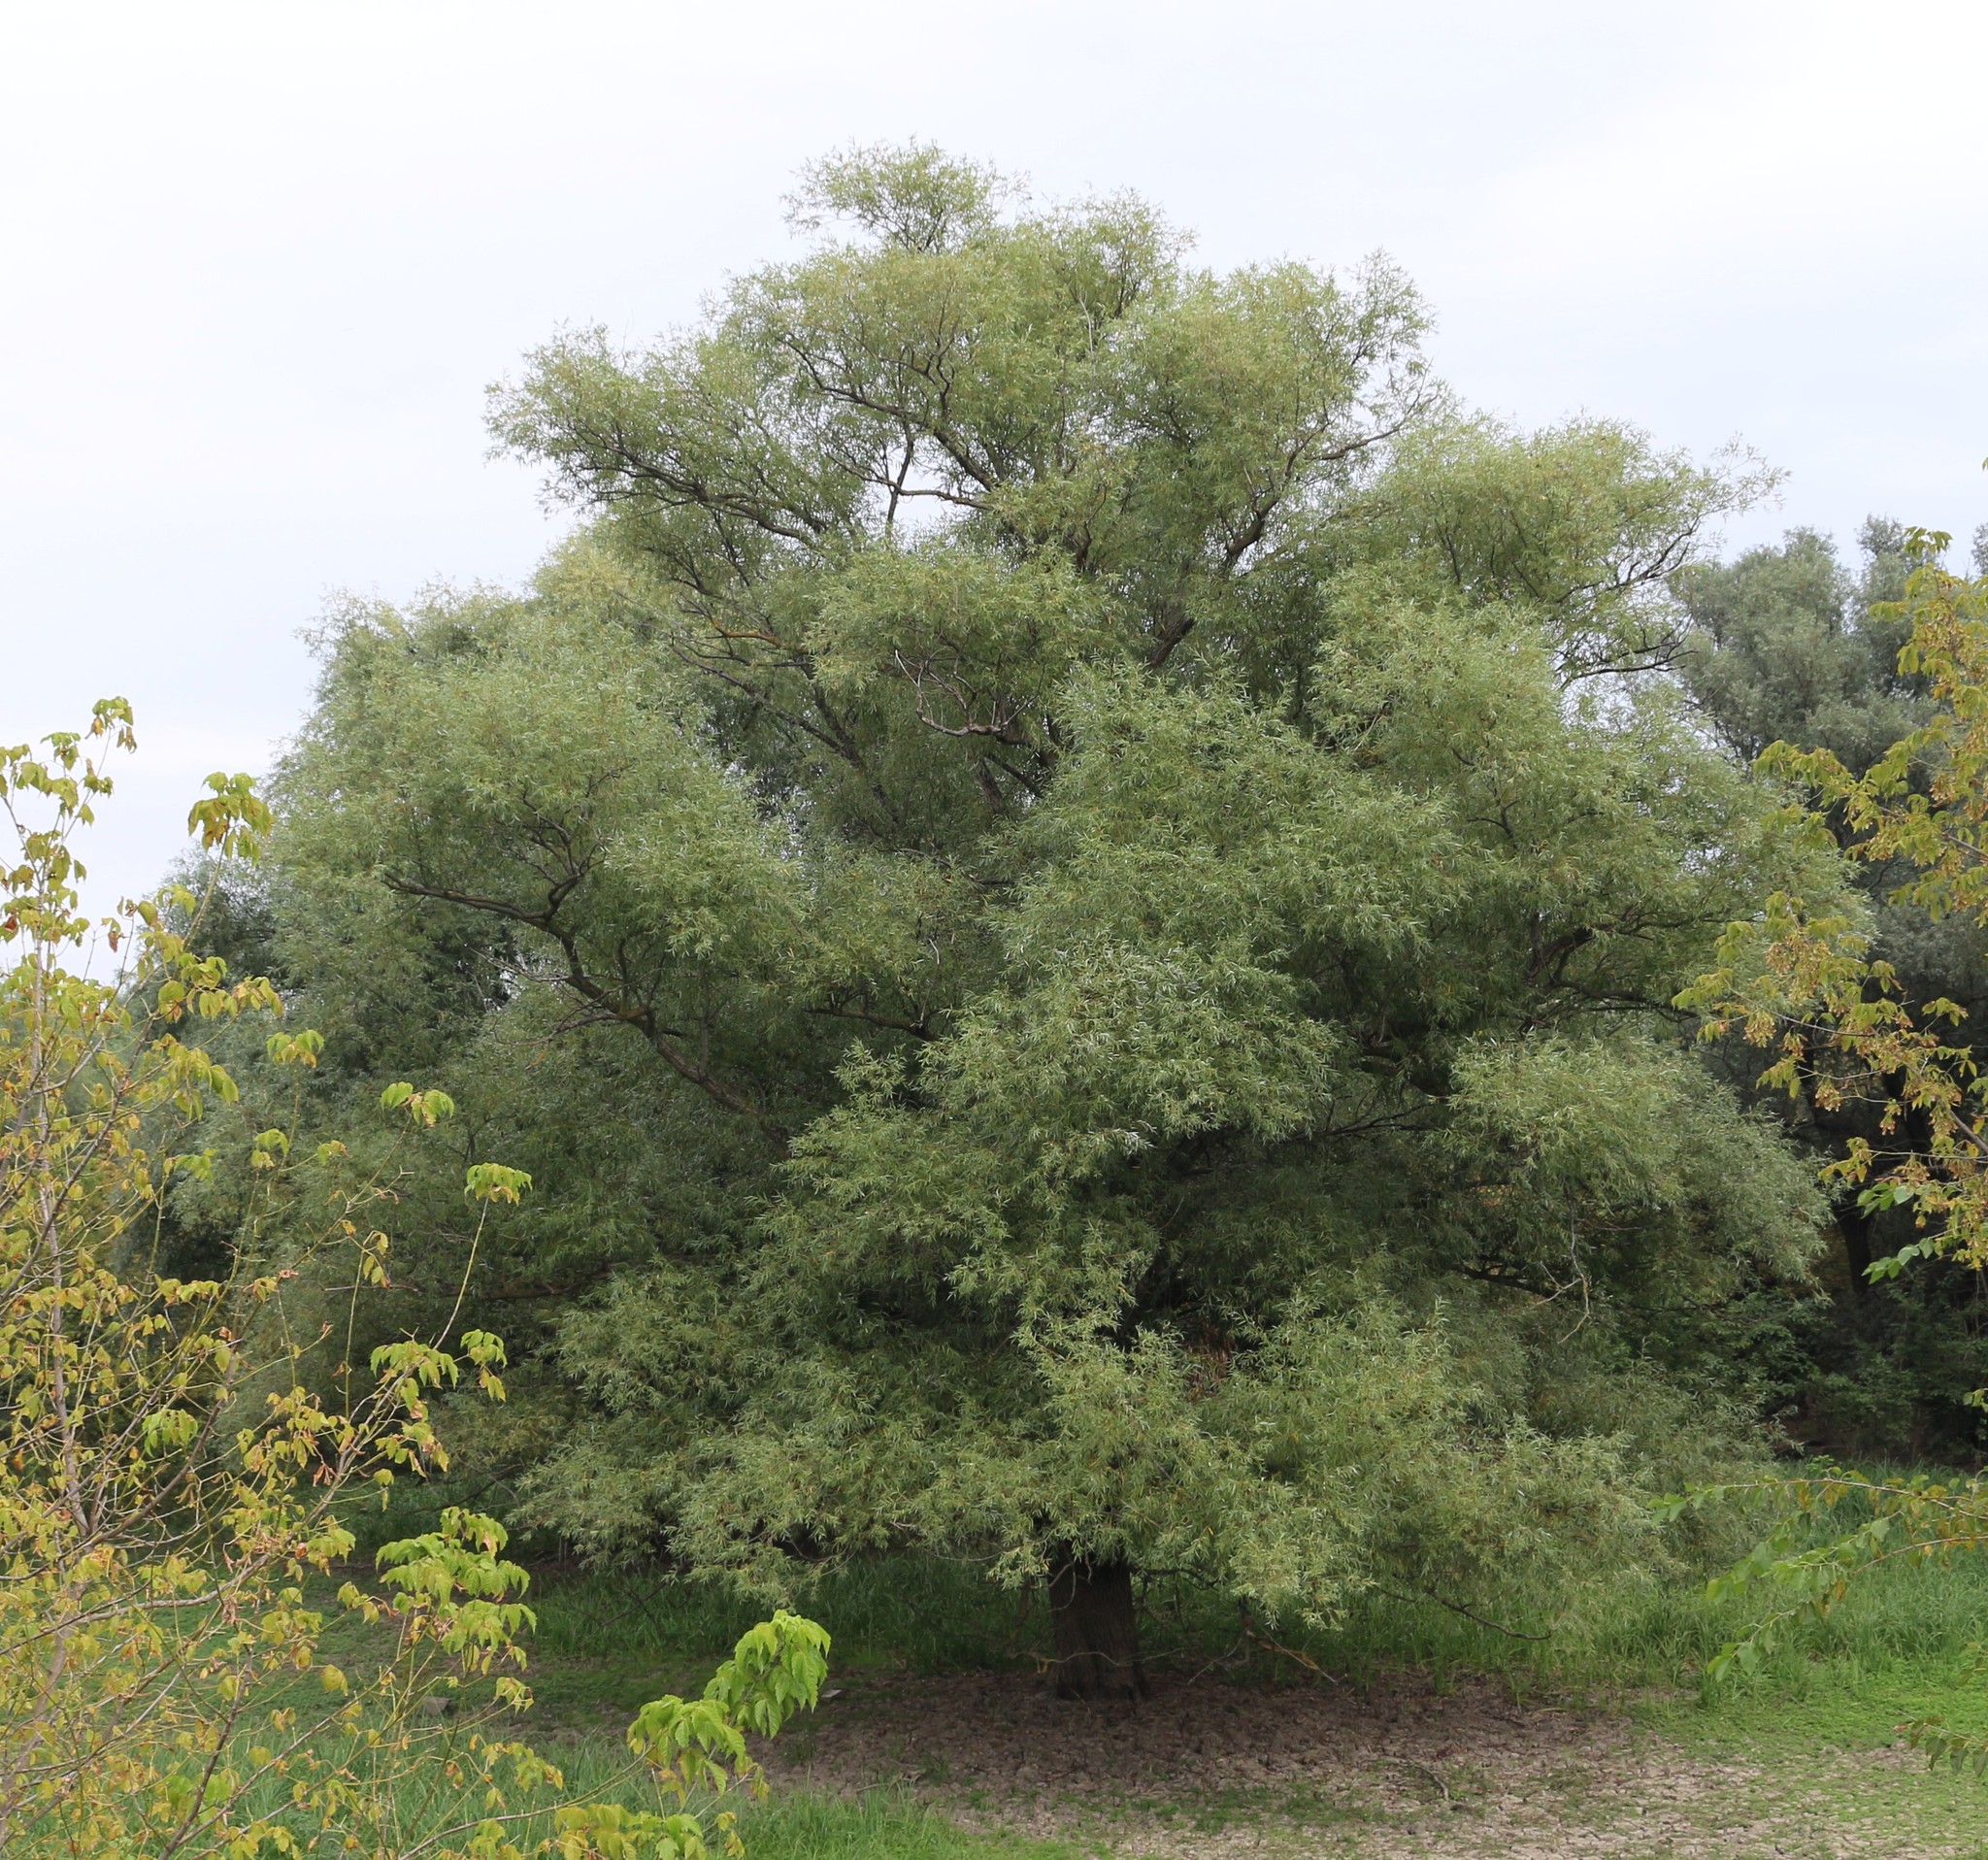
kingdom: Plantae
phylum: Tracheophyta
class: Magnoliopsida
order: Malpighiales
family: Salicaceae
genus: Salix
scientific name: Salix alba
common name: White willow
